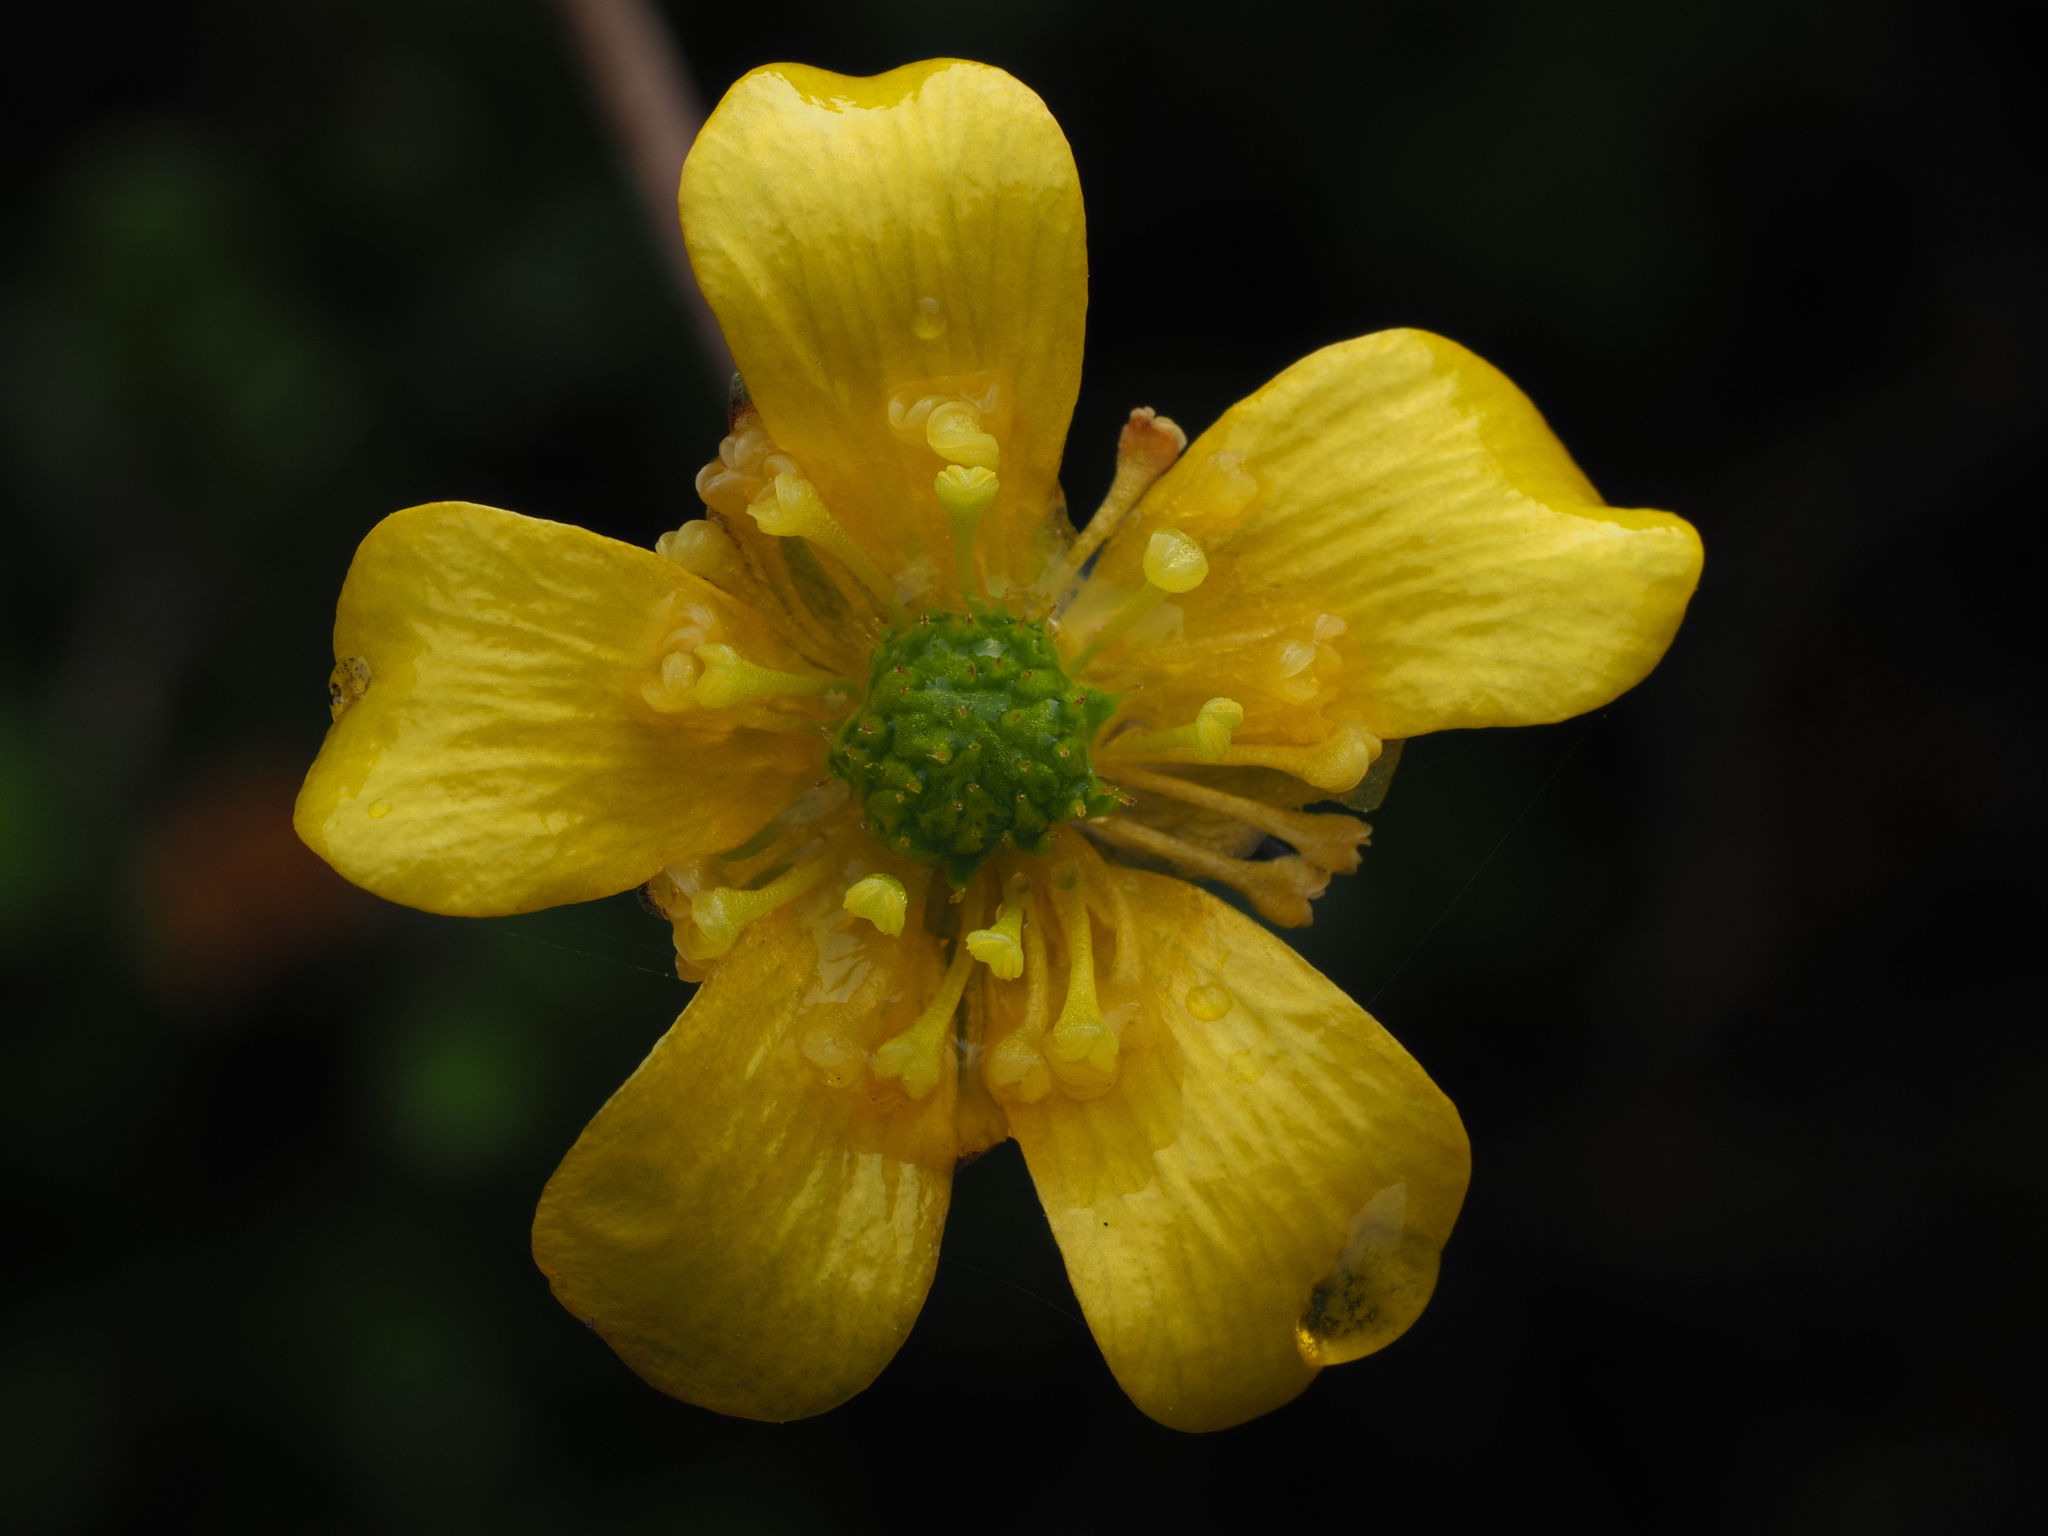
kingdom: Plantae
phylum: Tracheophyta
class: Magnoliopsida
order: Ranunculales
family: Ranunculaceae
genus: Ranunculus
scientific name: Ranunculus enysii
